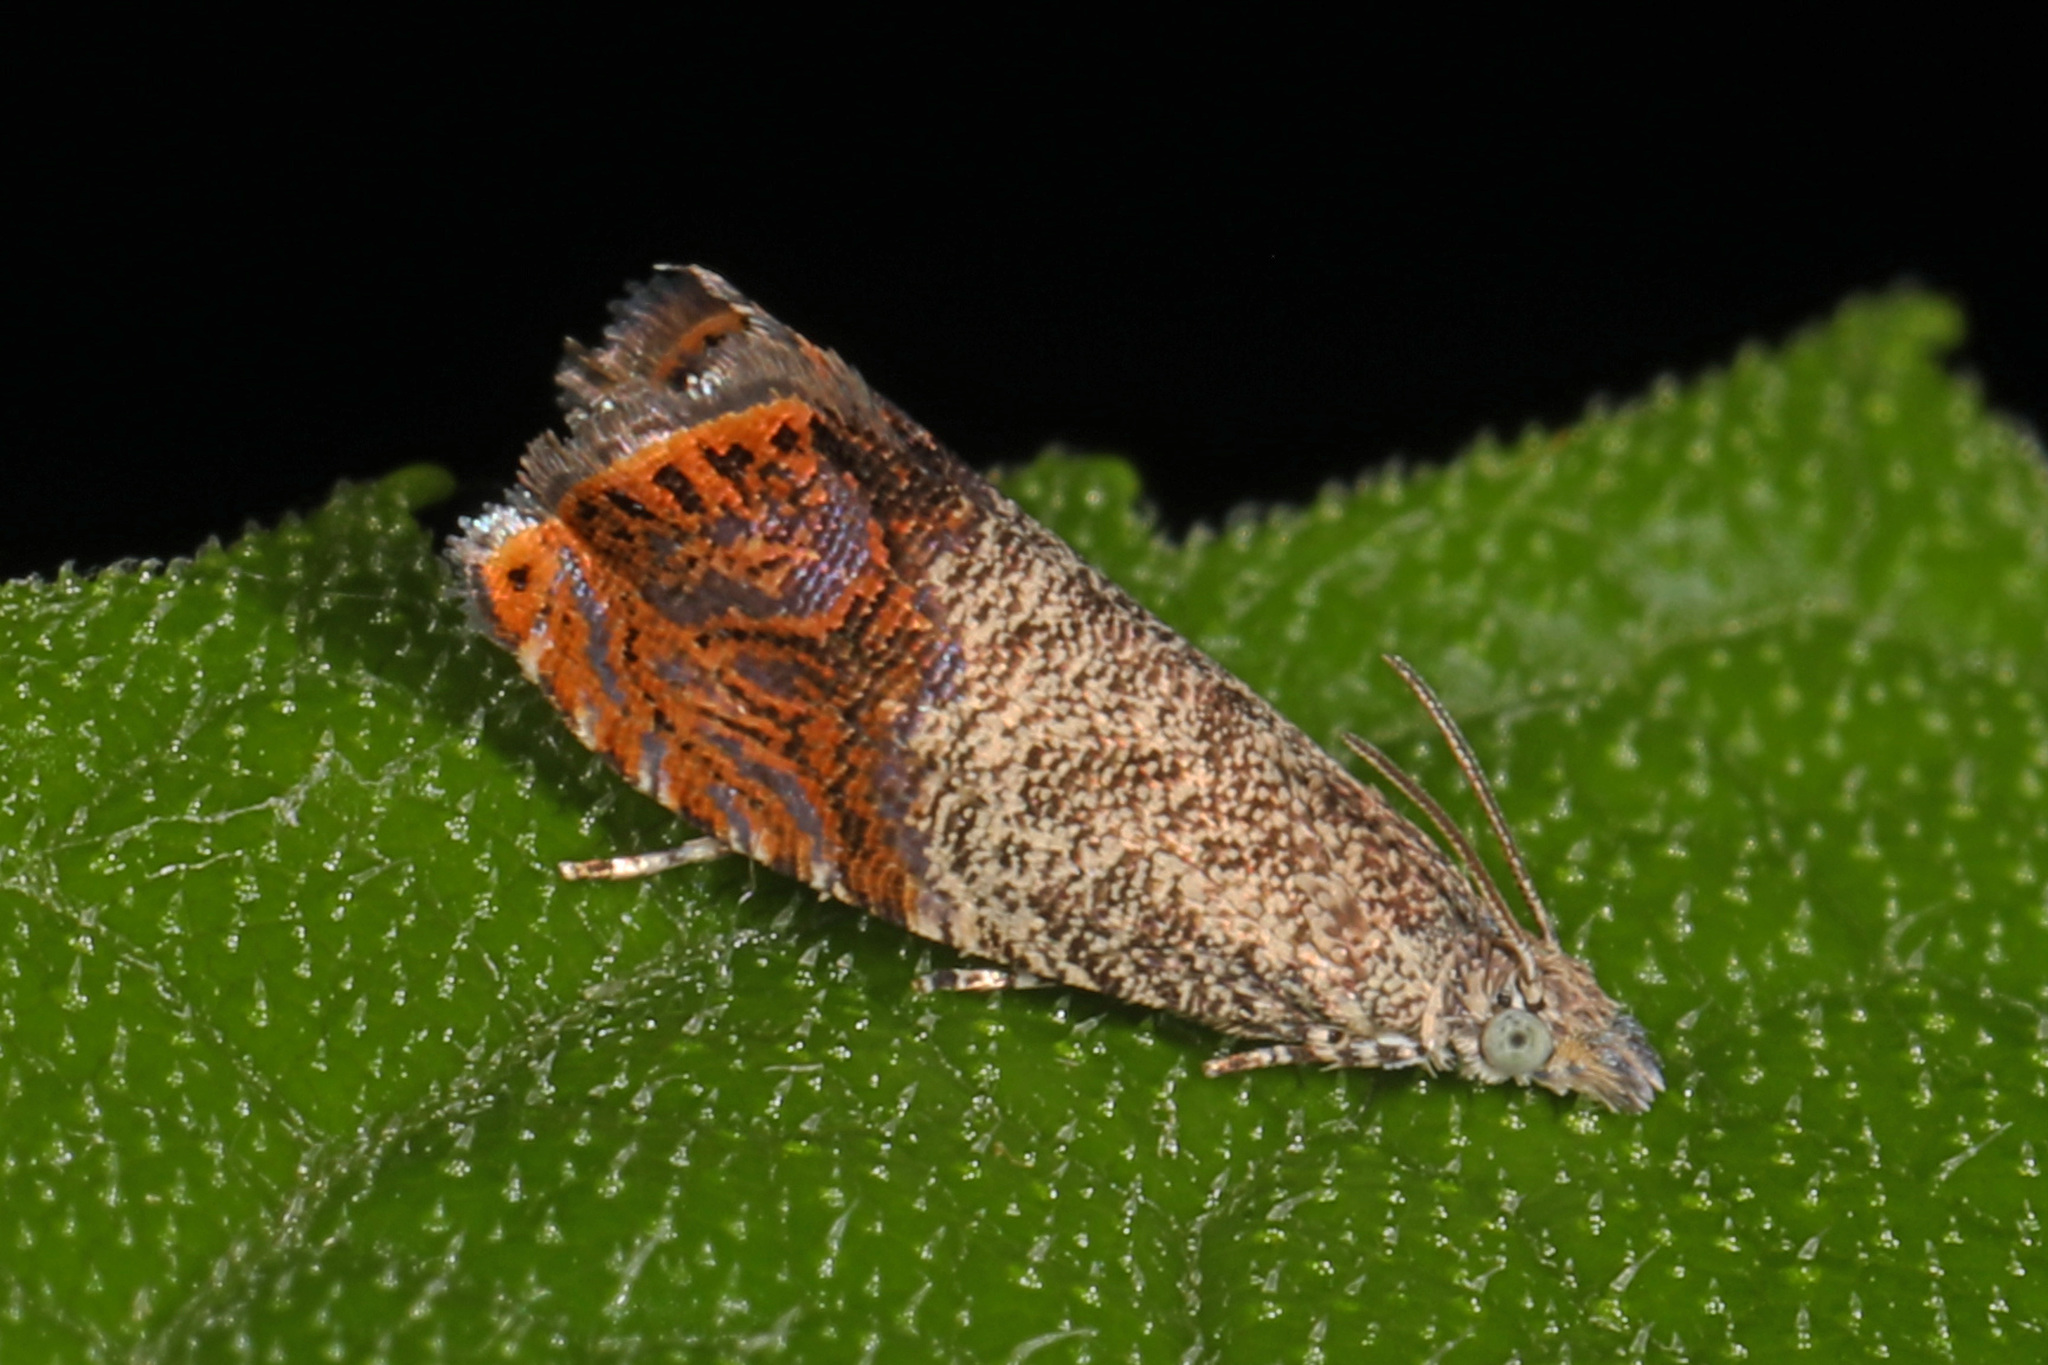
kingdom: Animalia
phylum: Arthropoda
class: Insecta
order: Lepidoptera
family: Tortricidae
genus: Talponia
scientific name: Talponia plummeriana
